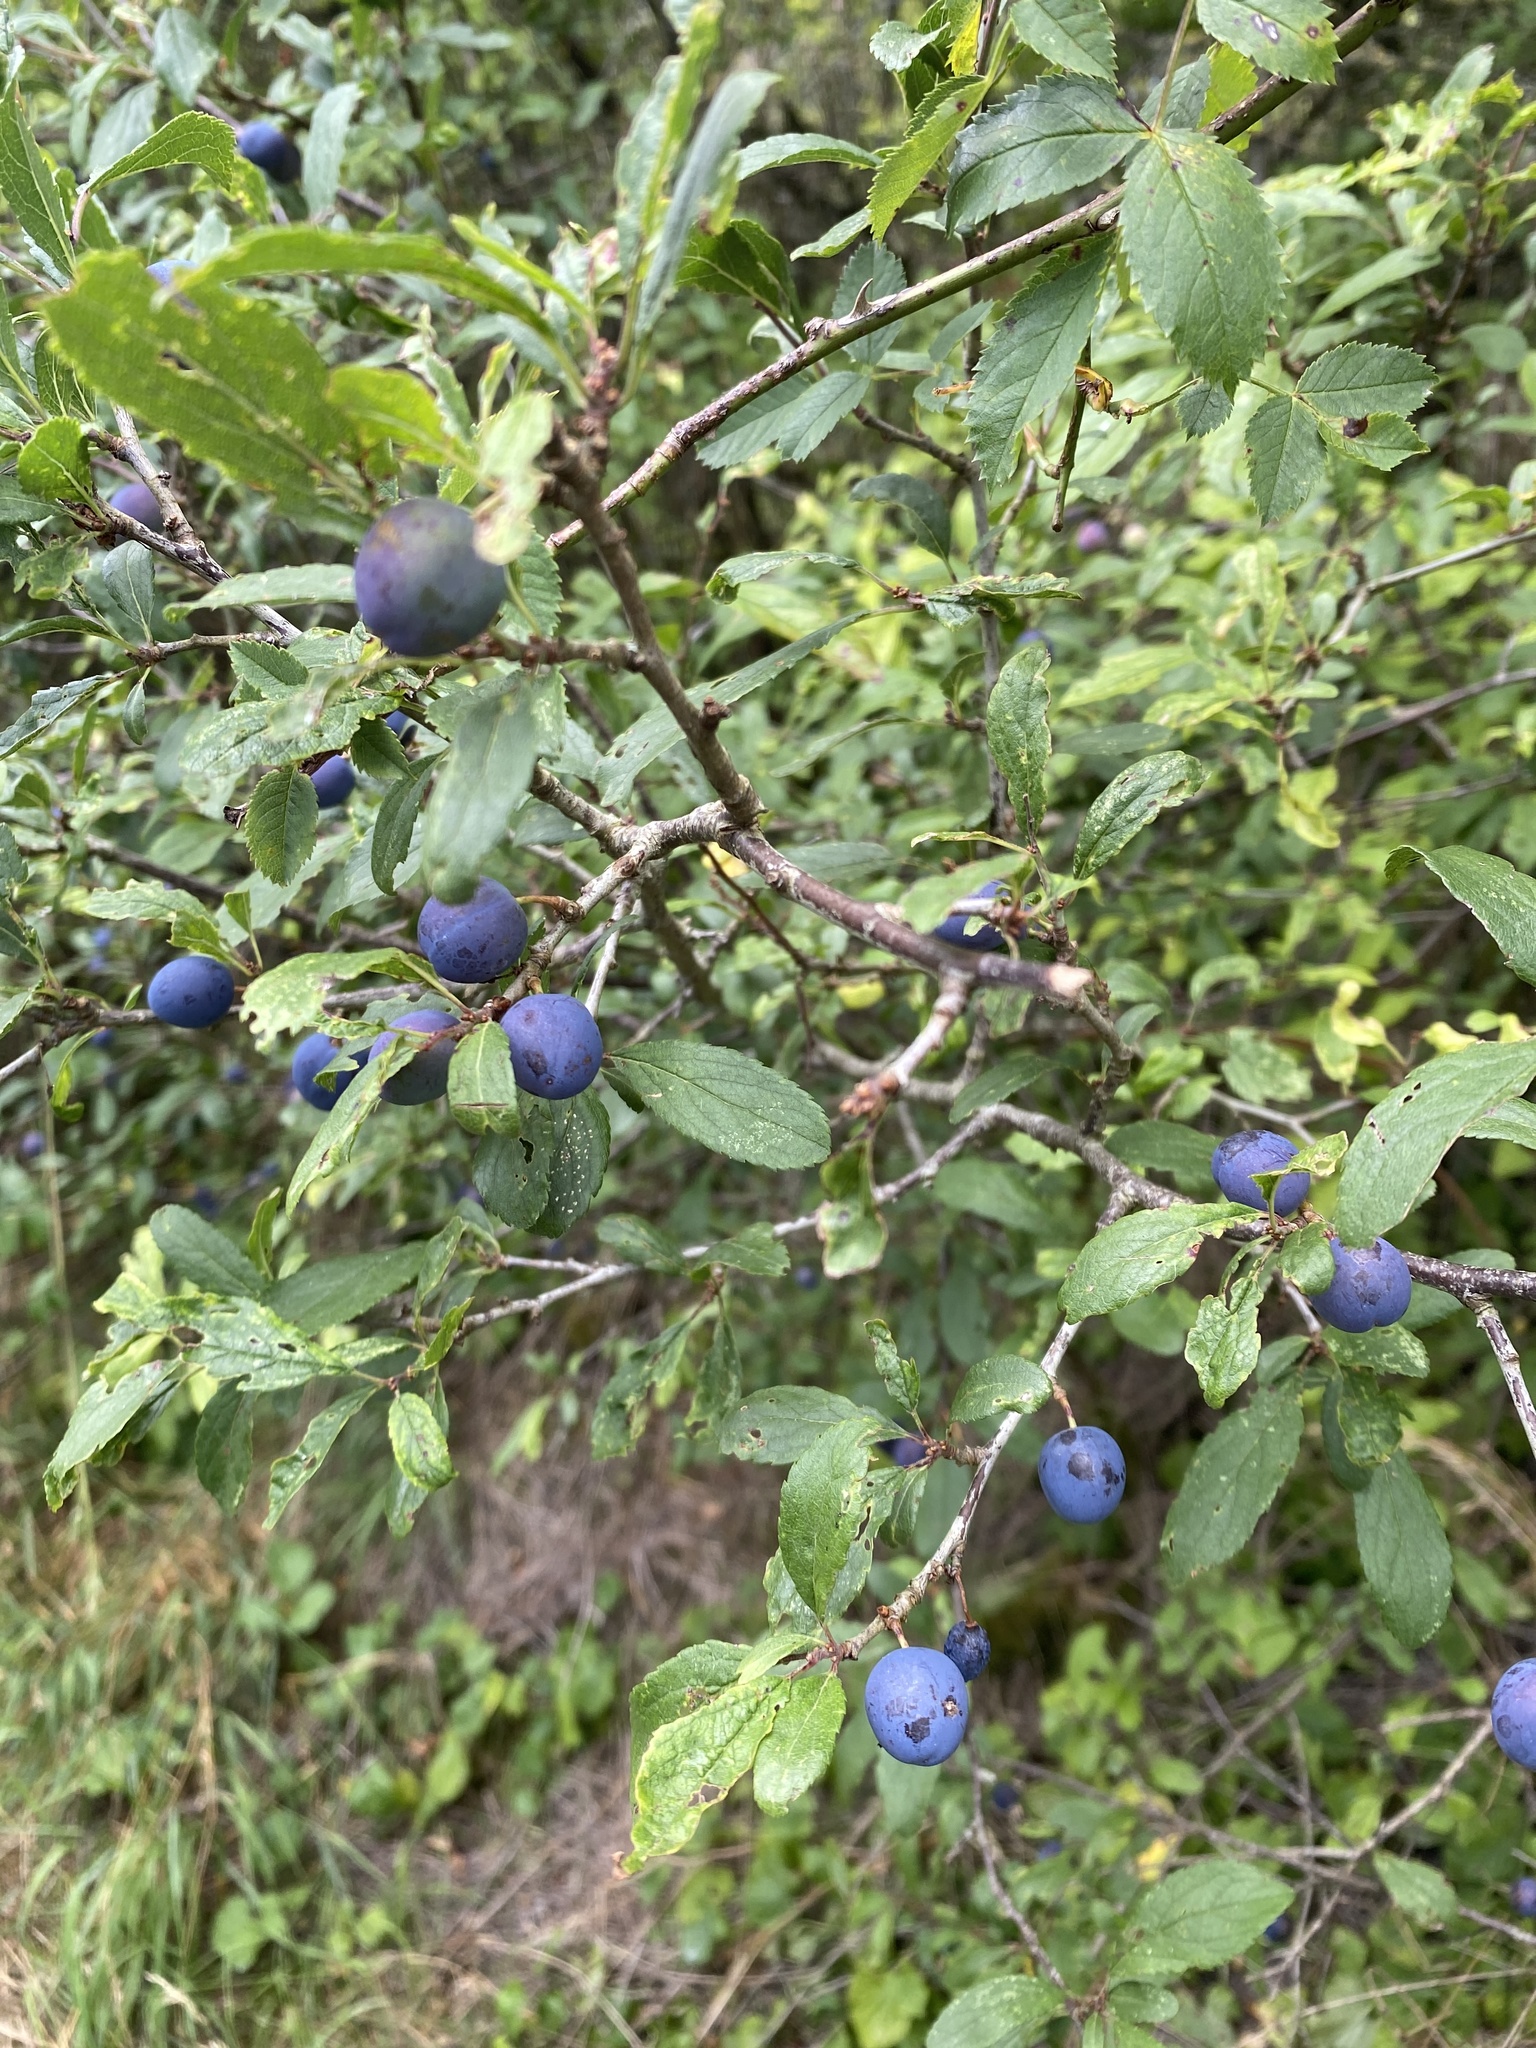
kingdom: Plantae
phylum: Tracheophyta
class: Magnoliopsida
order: Rosales
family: Rosaceae
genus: Prunus
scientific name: Prunus spinosa
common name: Blackthorn
